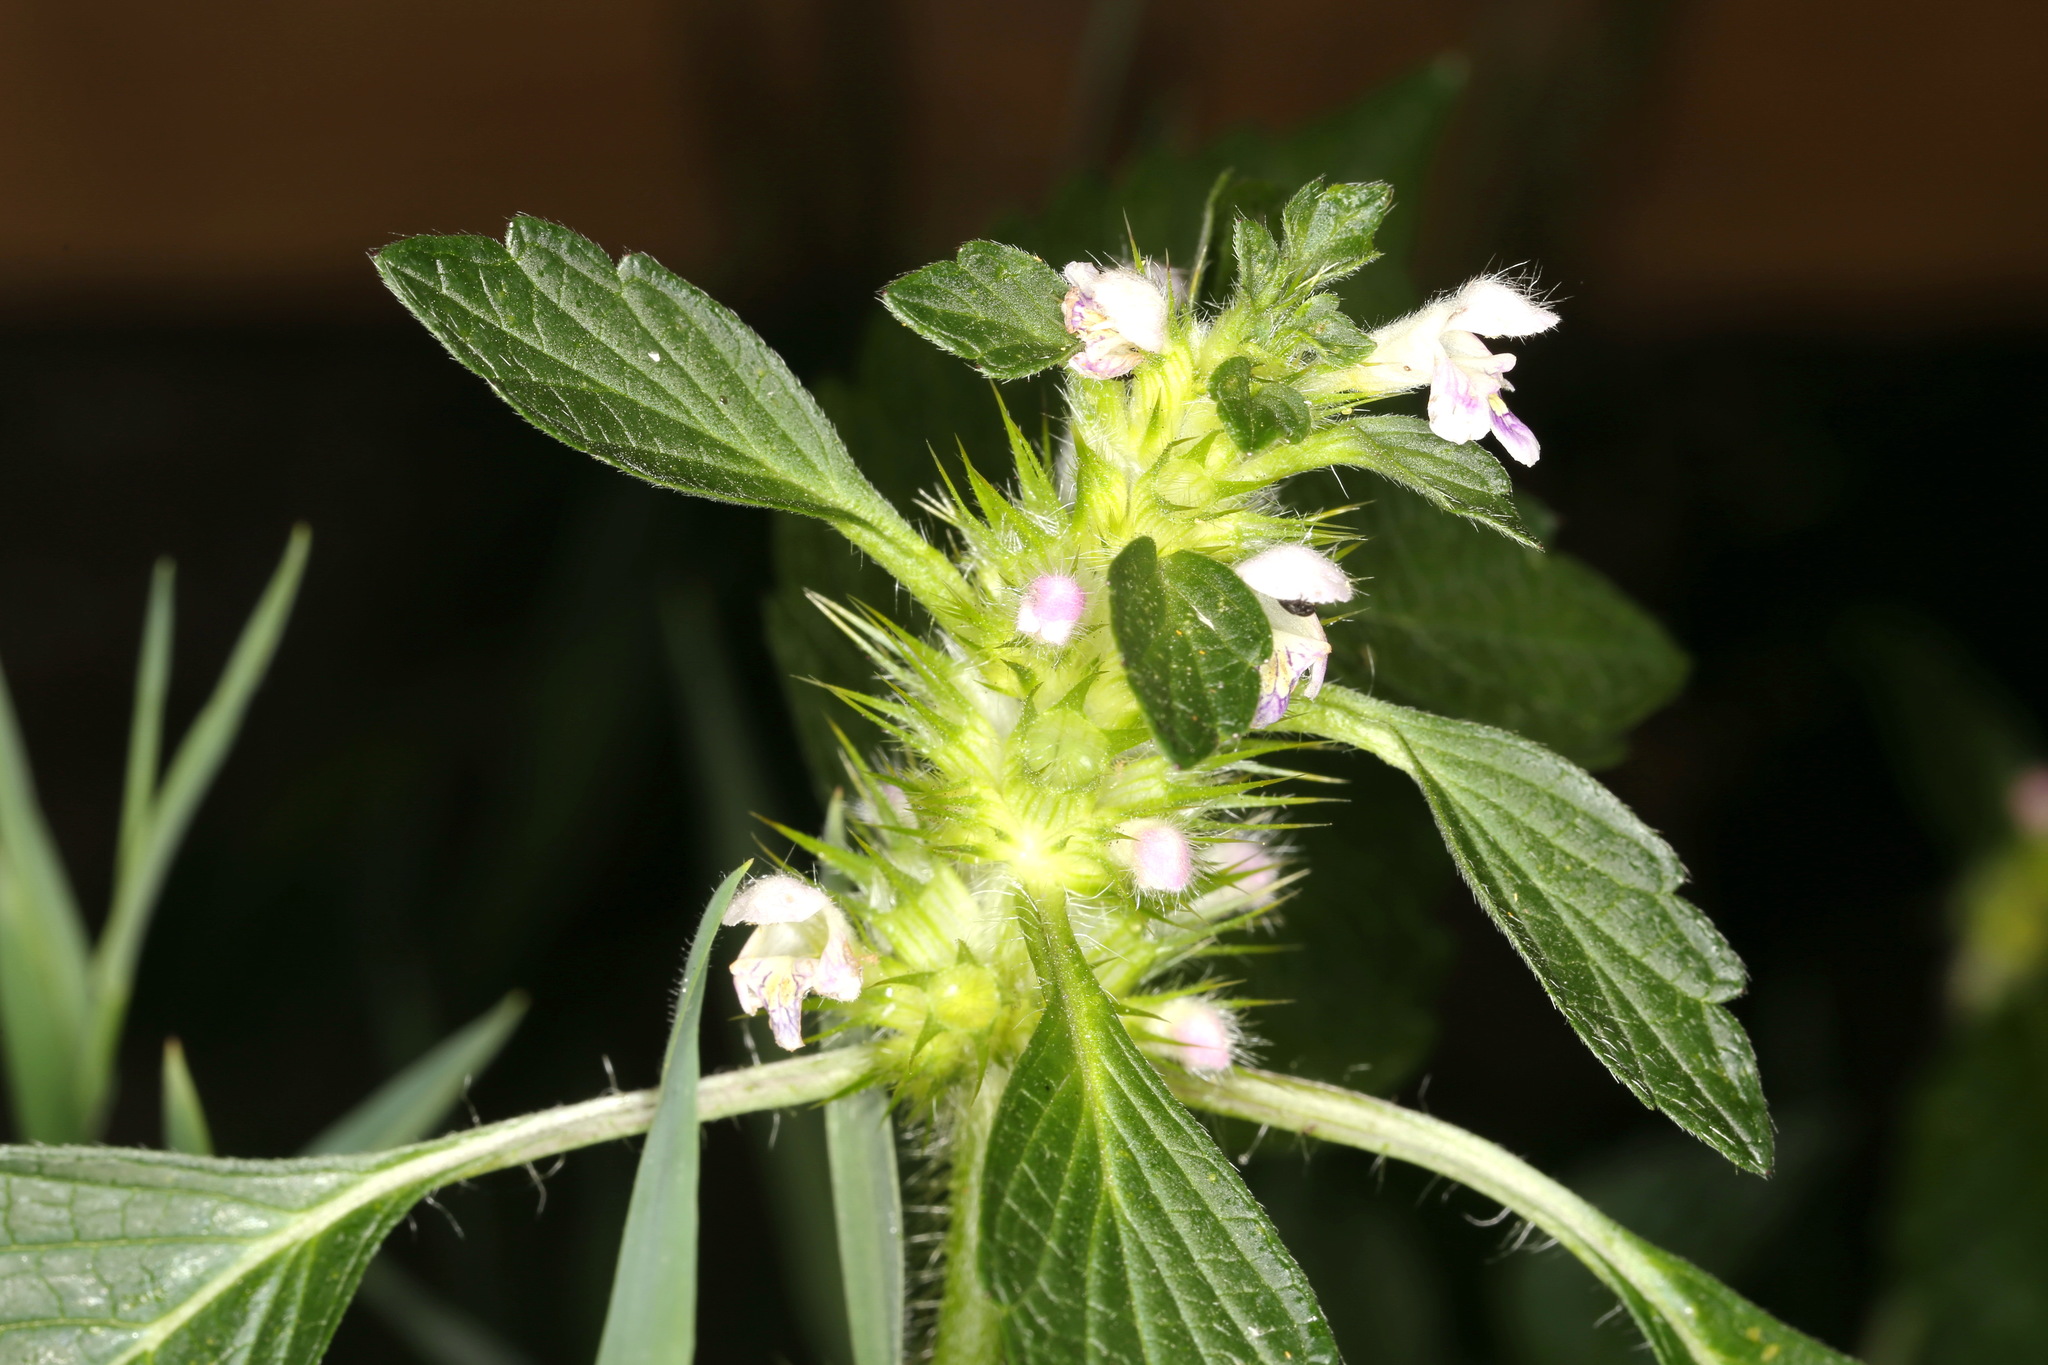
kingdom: Plantae
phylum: Tracheophyta
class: Magnoliopsida
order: Lamiales
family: Lamiaceae
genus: Galeopsis
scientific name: Galeopsis tetrahit
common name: Common hemp-nettle
